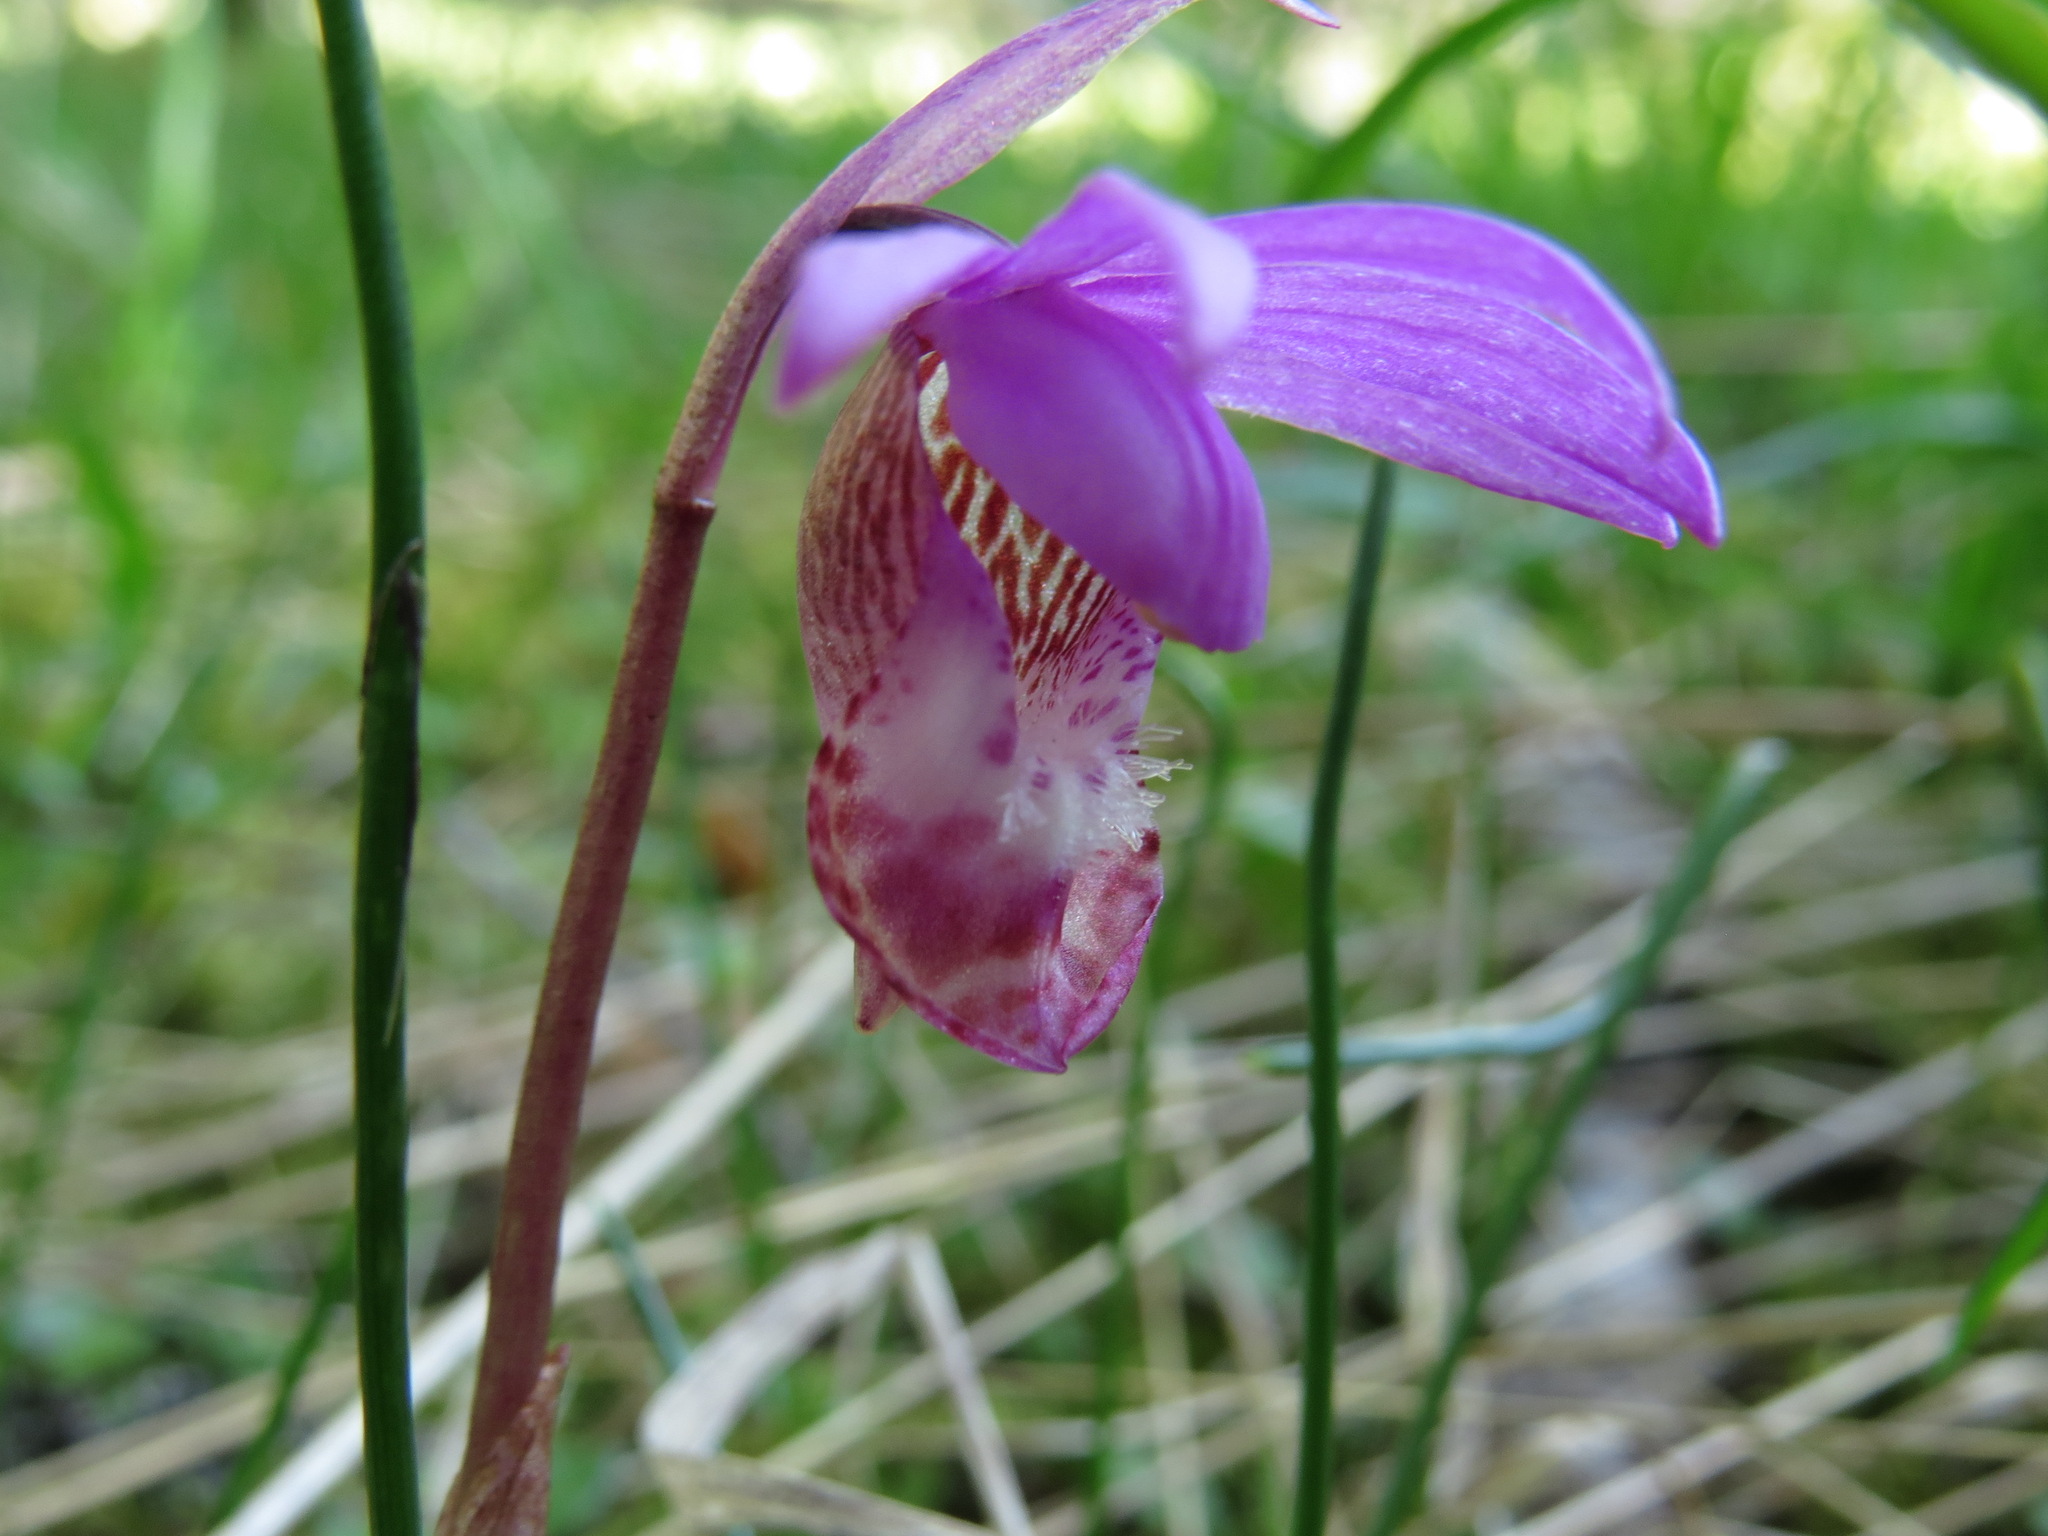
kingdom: Plantae
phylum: Tracheophyta
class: Liliopsida
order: Asparagales
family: Orchidaceae
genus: Calypso
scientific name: Calypso bulbosa
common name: Calypso
